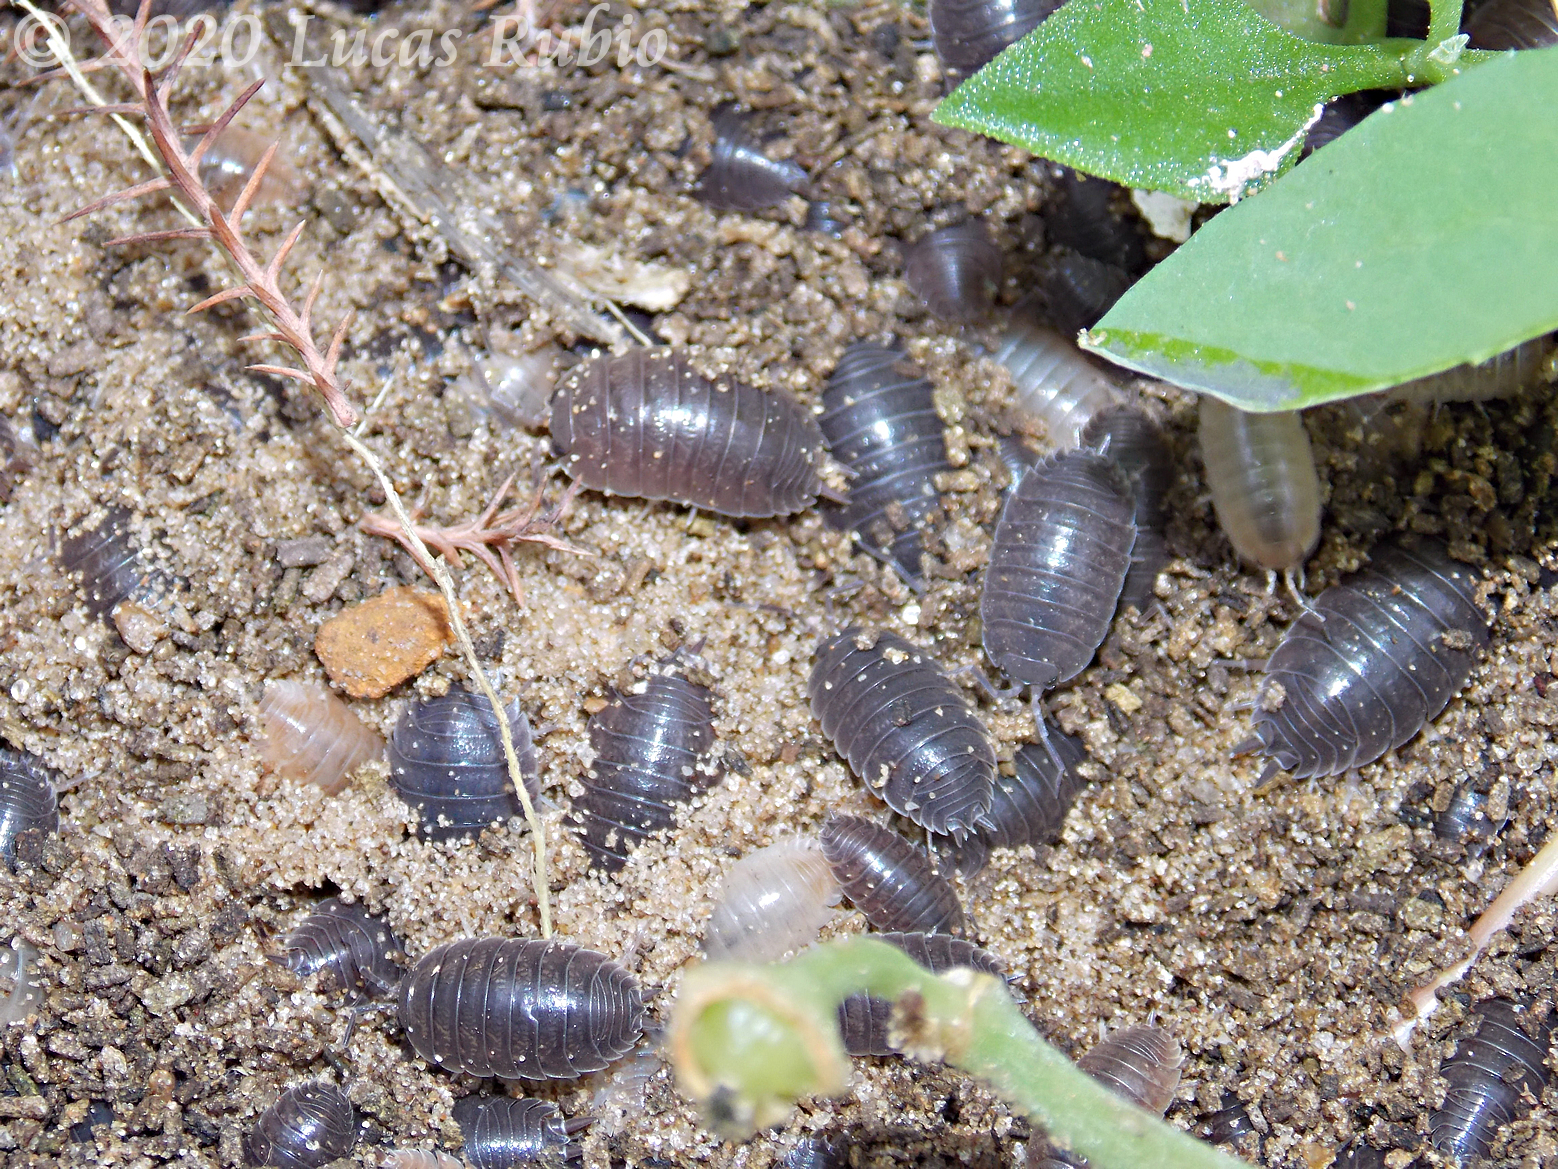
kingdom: Animalia
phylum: Arthropoda
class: Malacostraca
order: Isopoda
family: Porcellionidae
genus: Porcellio
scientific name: Porcellio laevis
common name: Swift woodlouse
